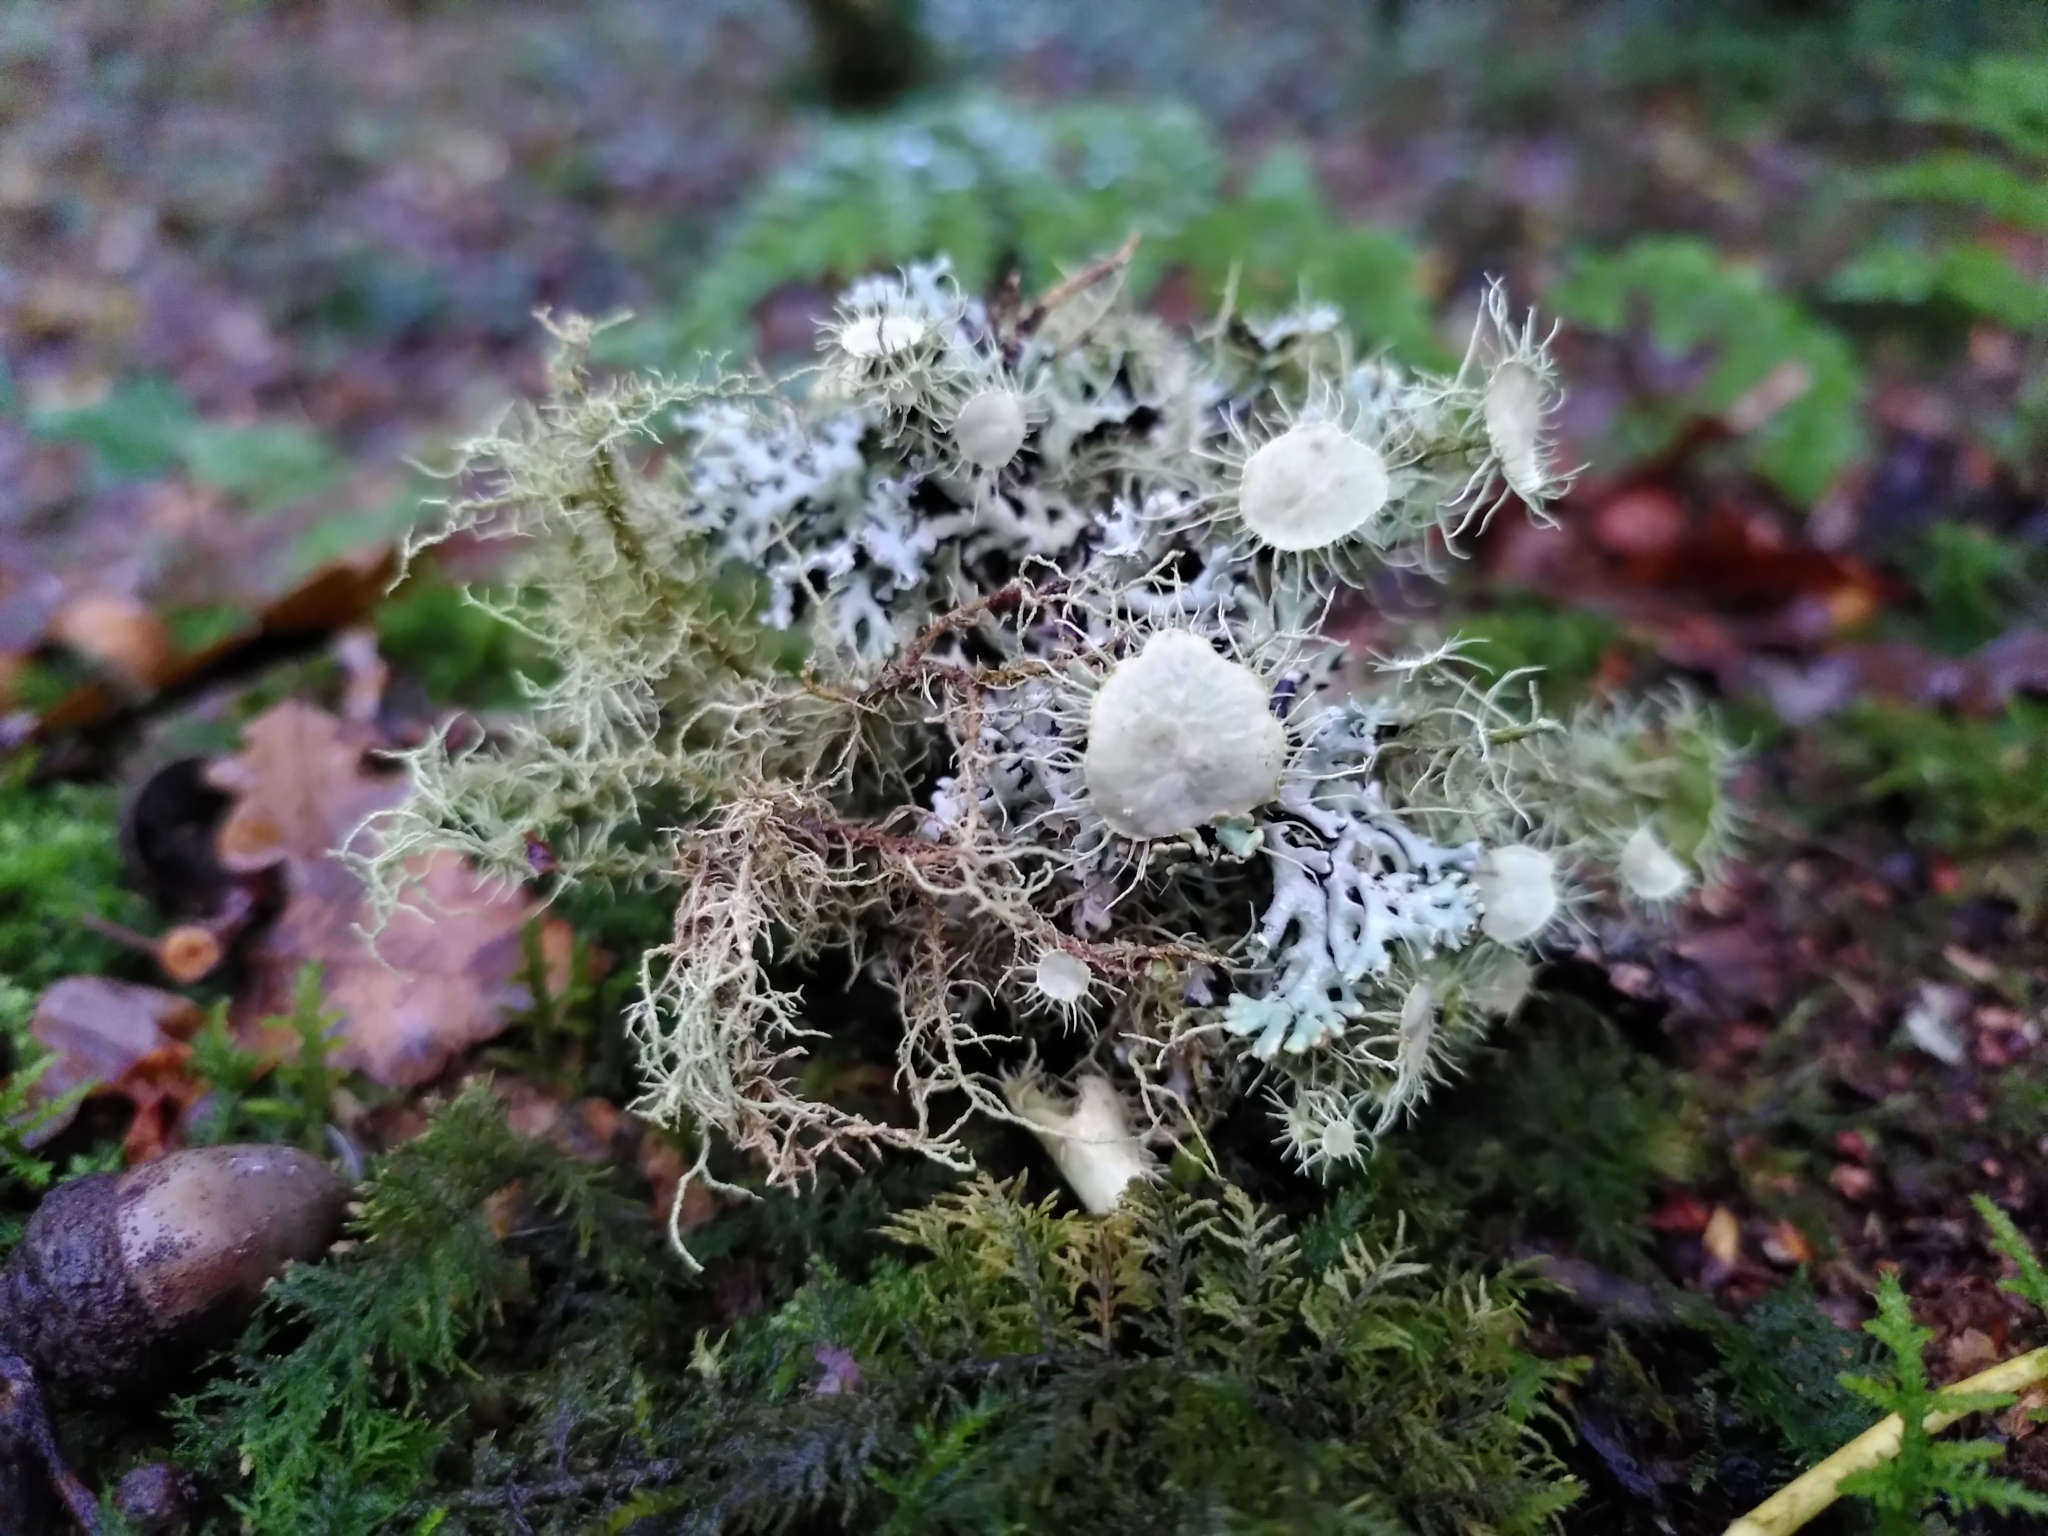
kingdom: Fungi
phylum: Ascomycota
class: Lecanoromycetes
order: Lecanorales
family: Parmeliaceae
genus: Usnea
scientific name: Usnea florida
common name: Witches' whiskers lichen
